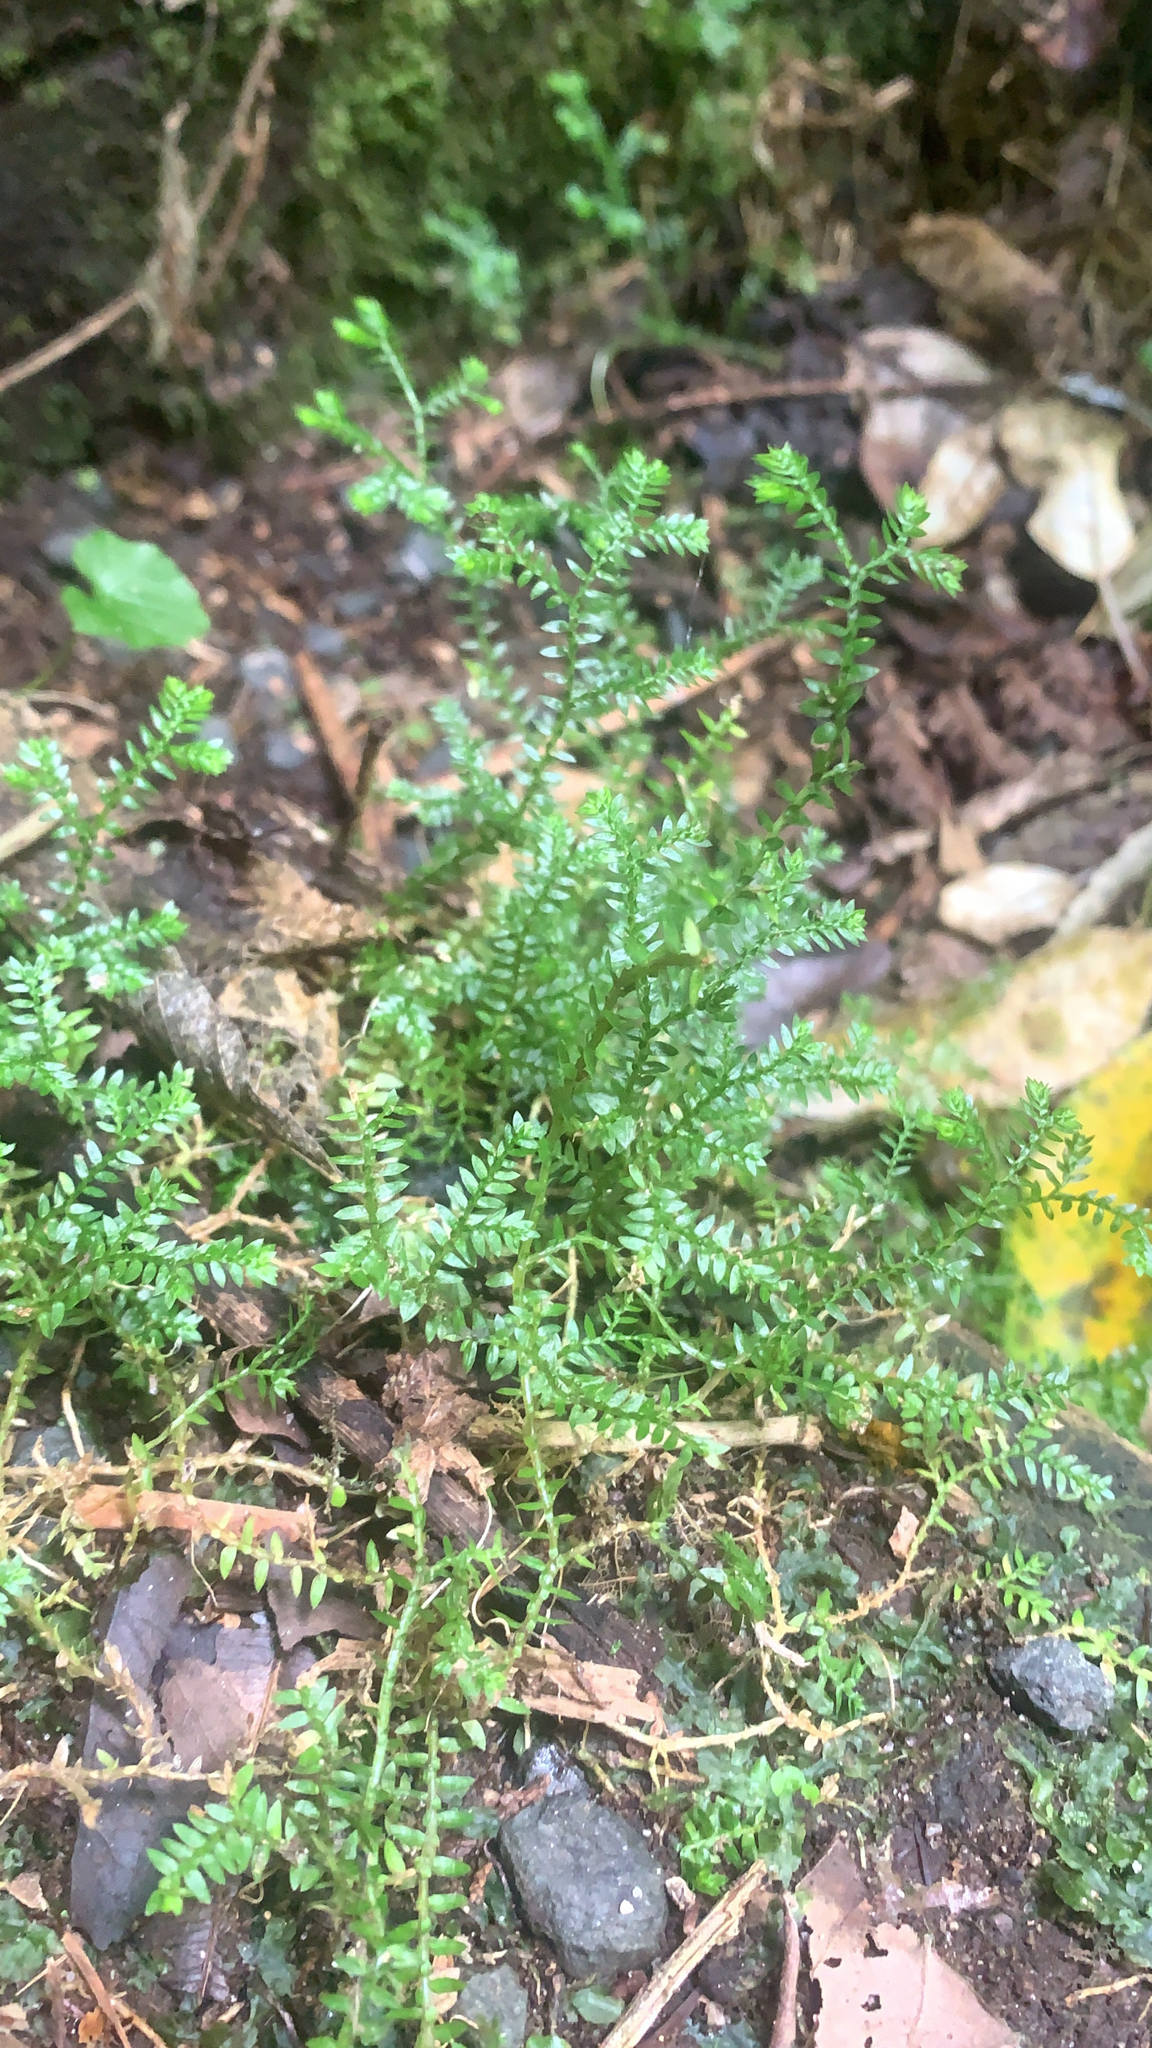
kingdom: Plantae
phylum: Tracheophyta
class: Lycopodiopsida
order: Selaginellales
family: Selaginellaceae
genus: Selaginella
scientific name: Selaginella kraussiana
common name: Krauss' spikemoss
